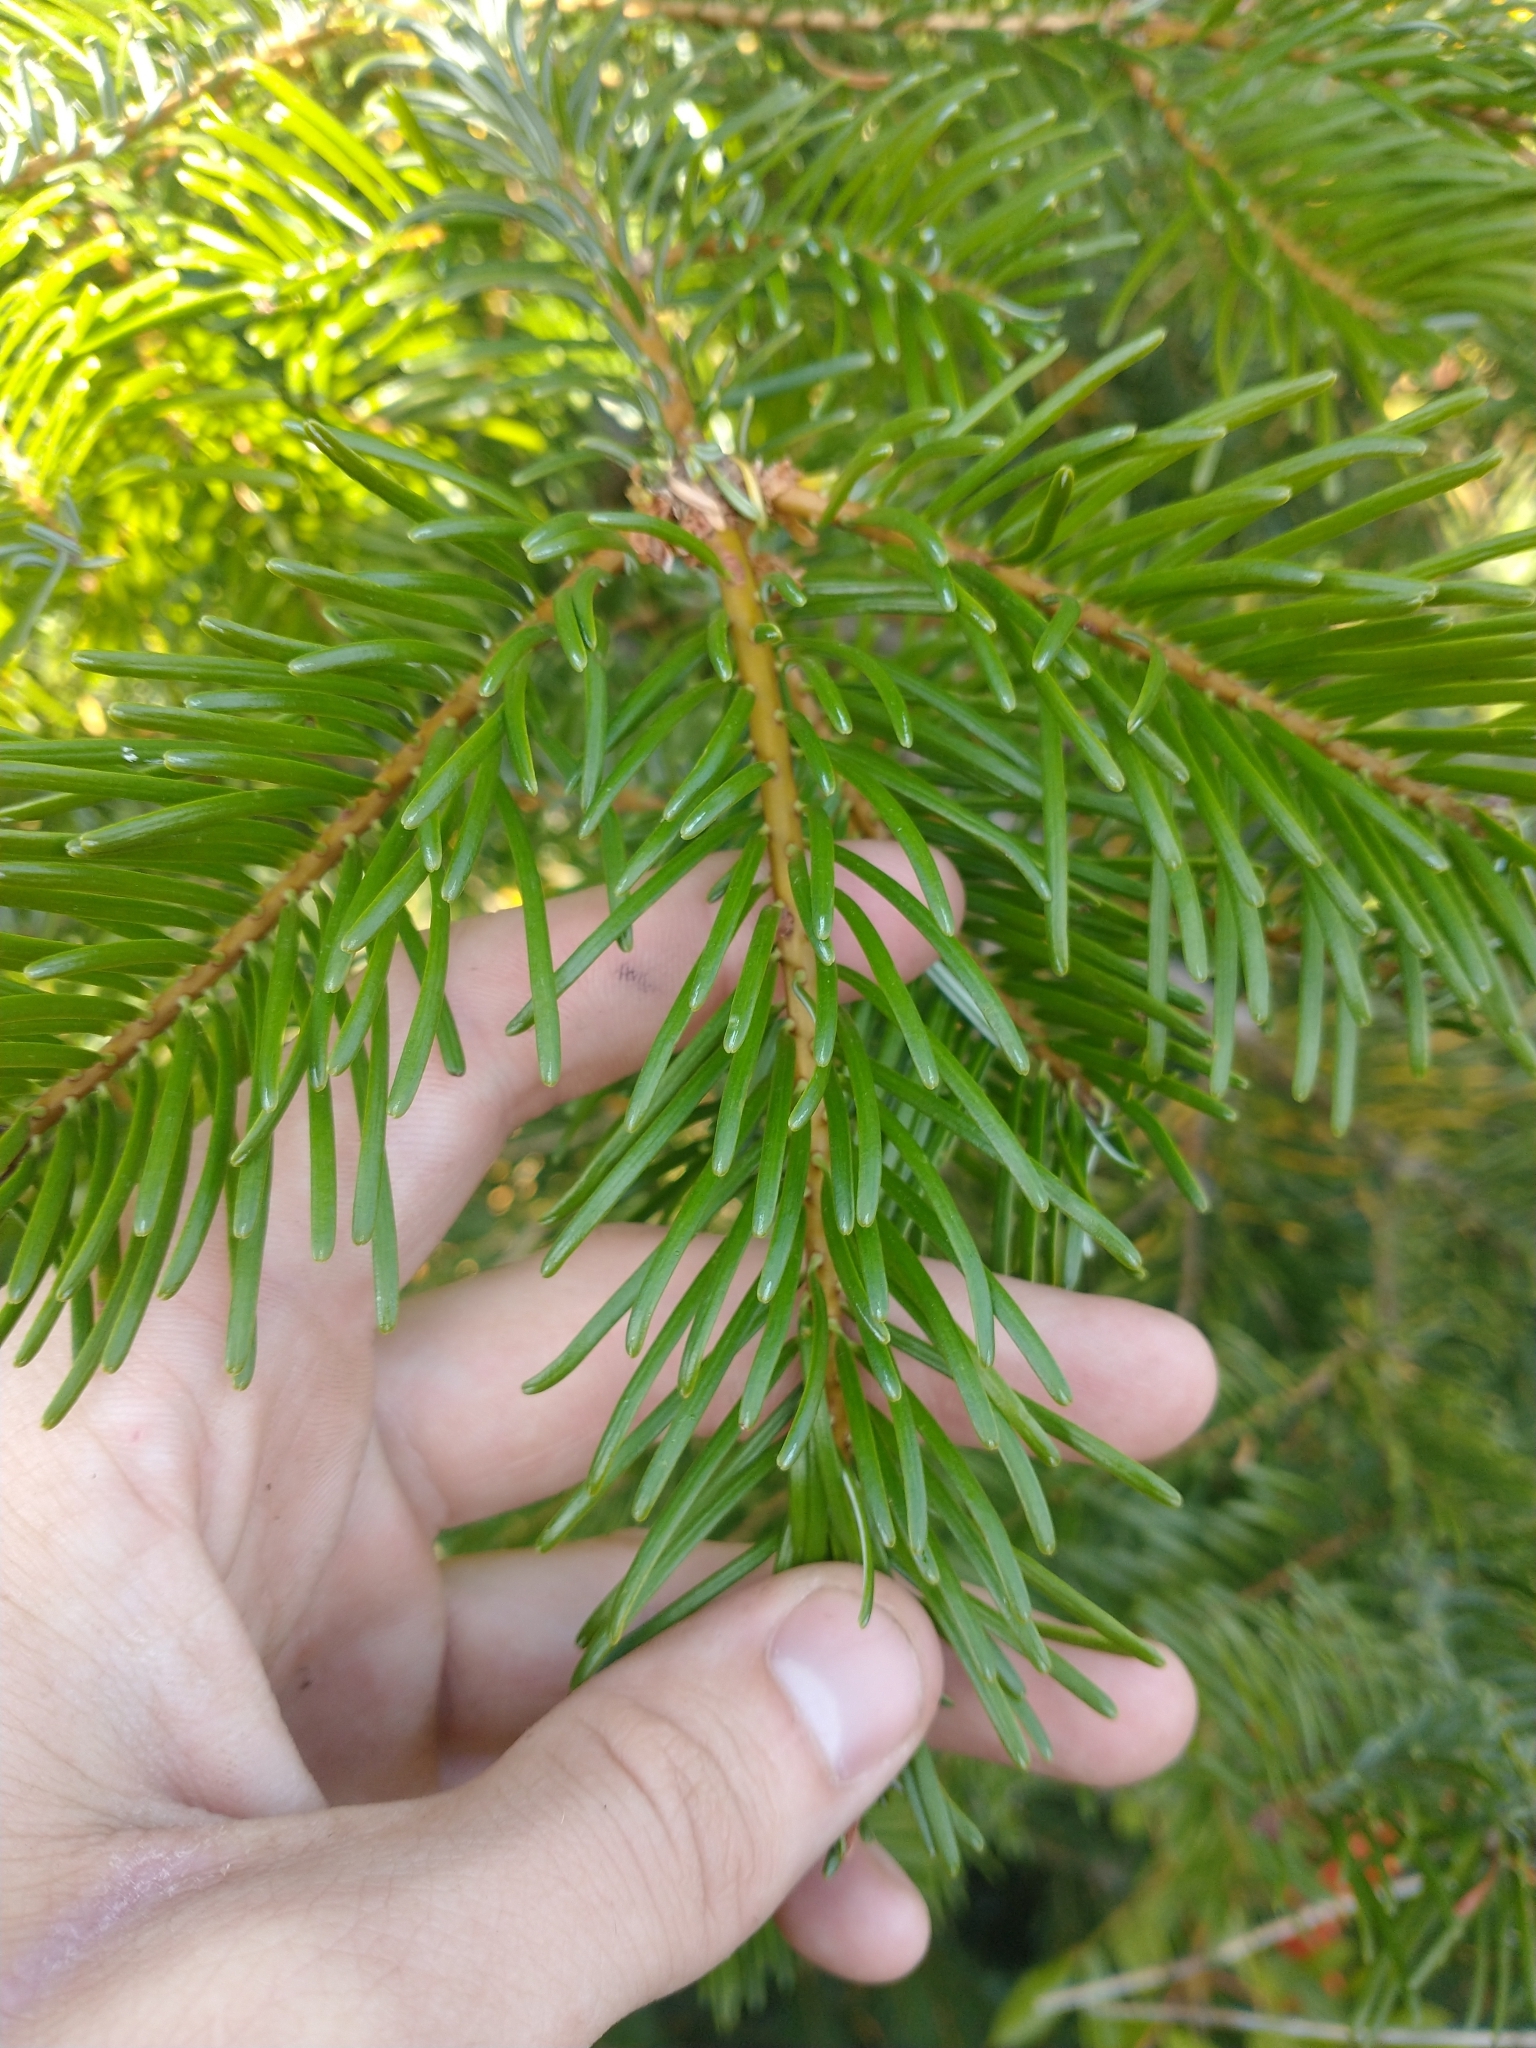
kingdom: Plantae
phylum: Tracheophyta
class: Pinopsida
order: Pinales
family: Pinaceae
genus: Abies
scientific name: Abies concolor
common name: Colorado fir
